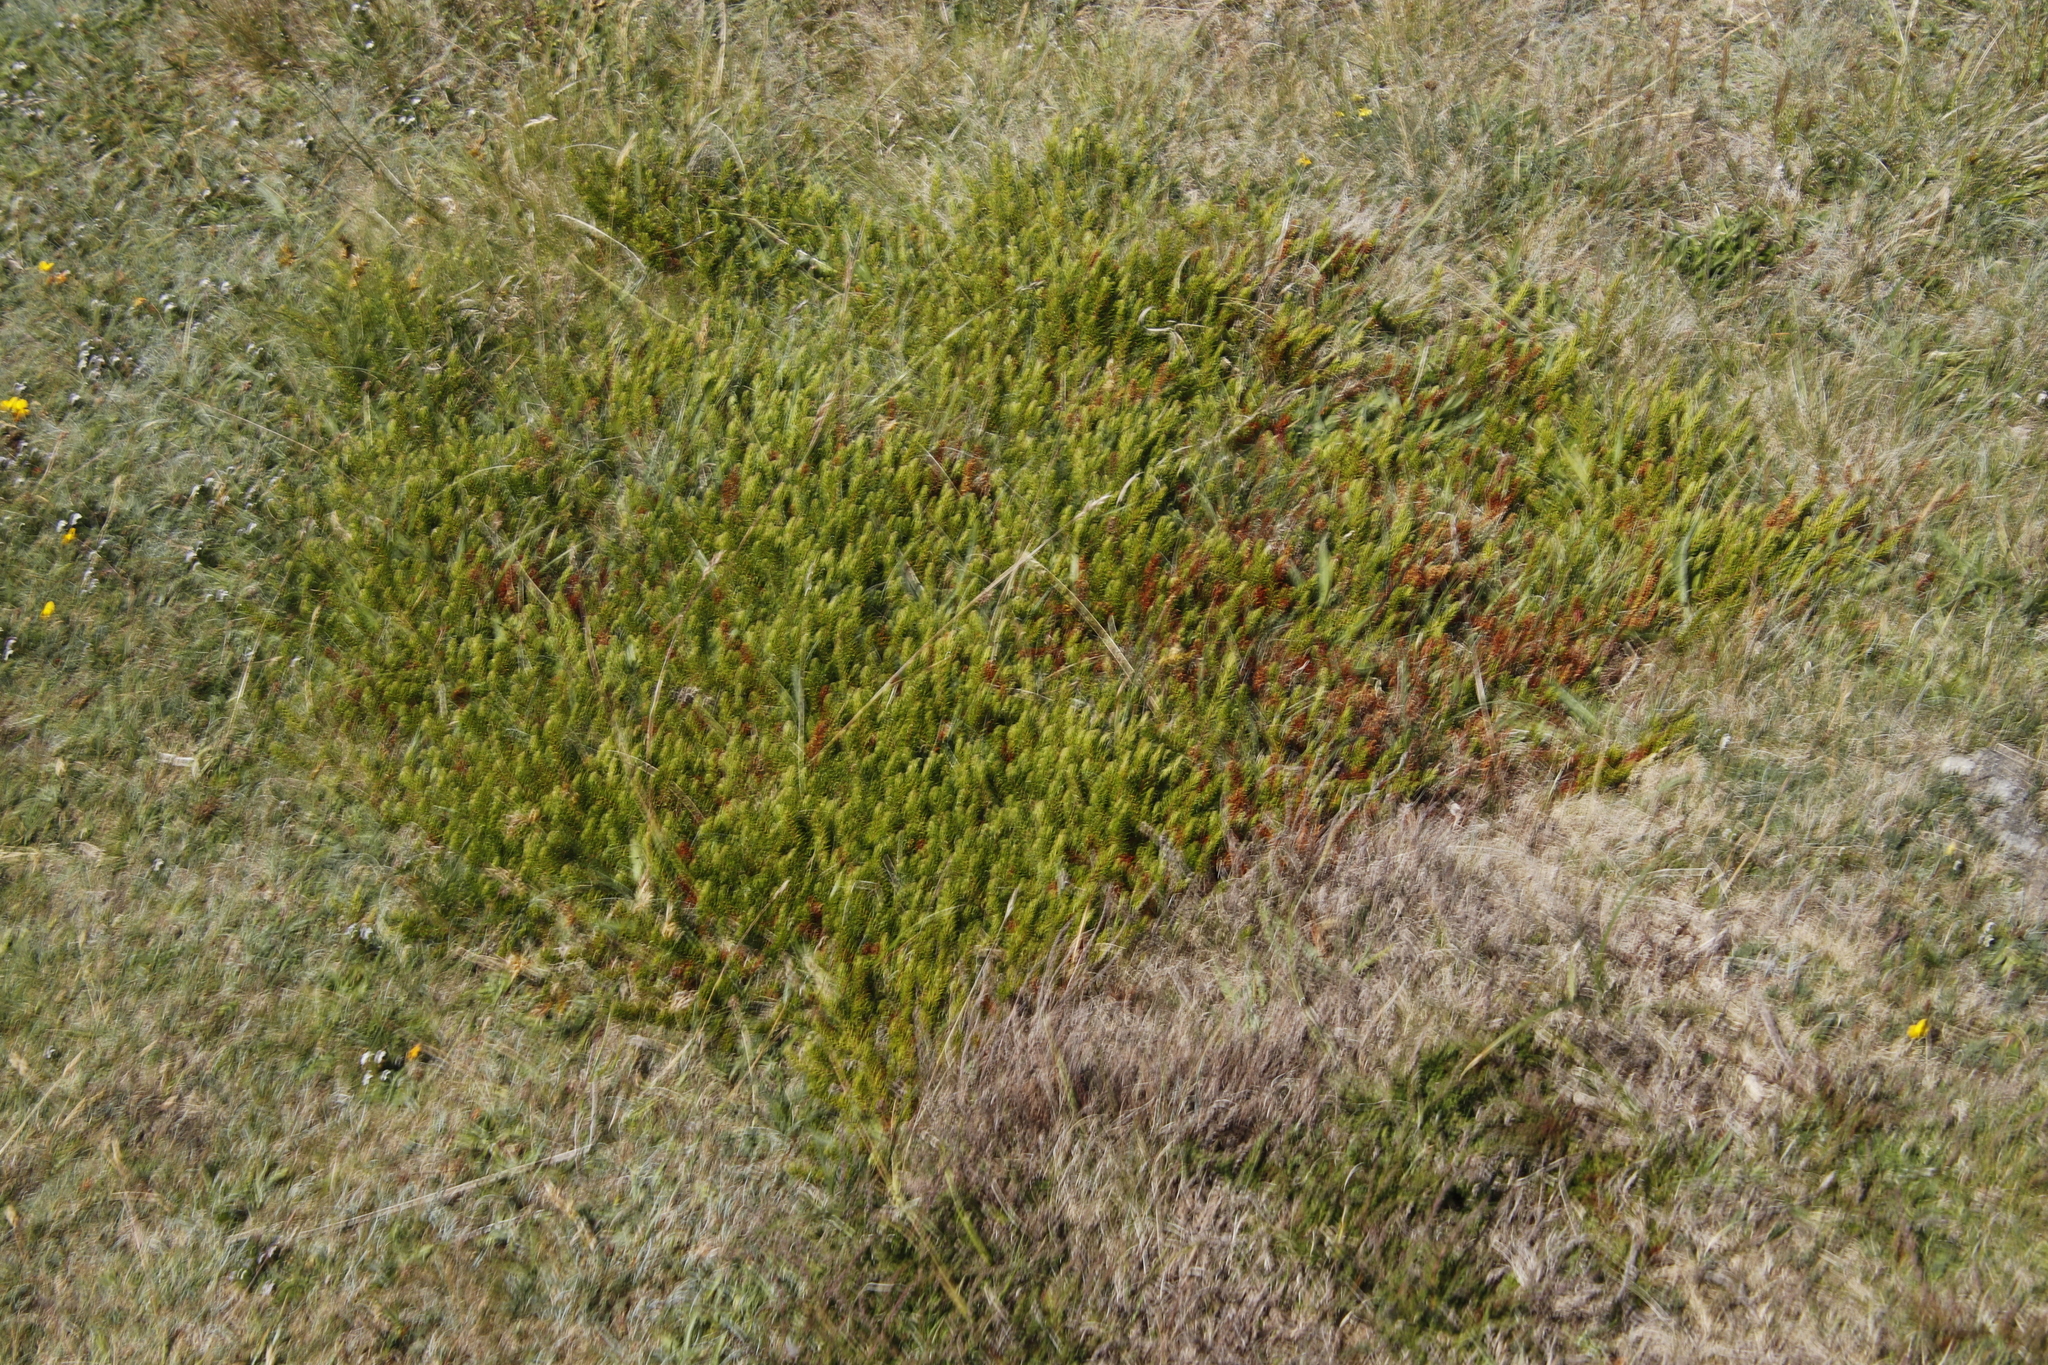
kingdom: Plantae
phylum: Tracheophyta
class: Magnoliopsida
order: Ericales
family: Ericaceae
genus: Empetrum
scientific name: Empetrum nigrum
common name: Black crowberry
